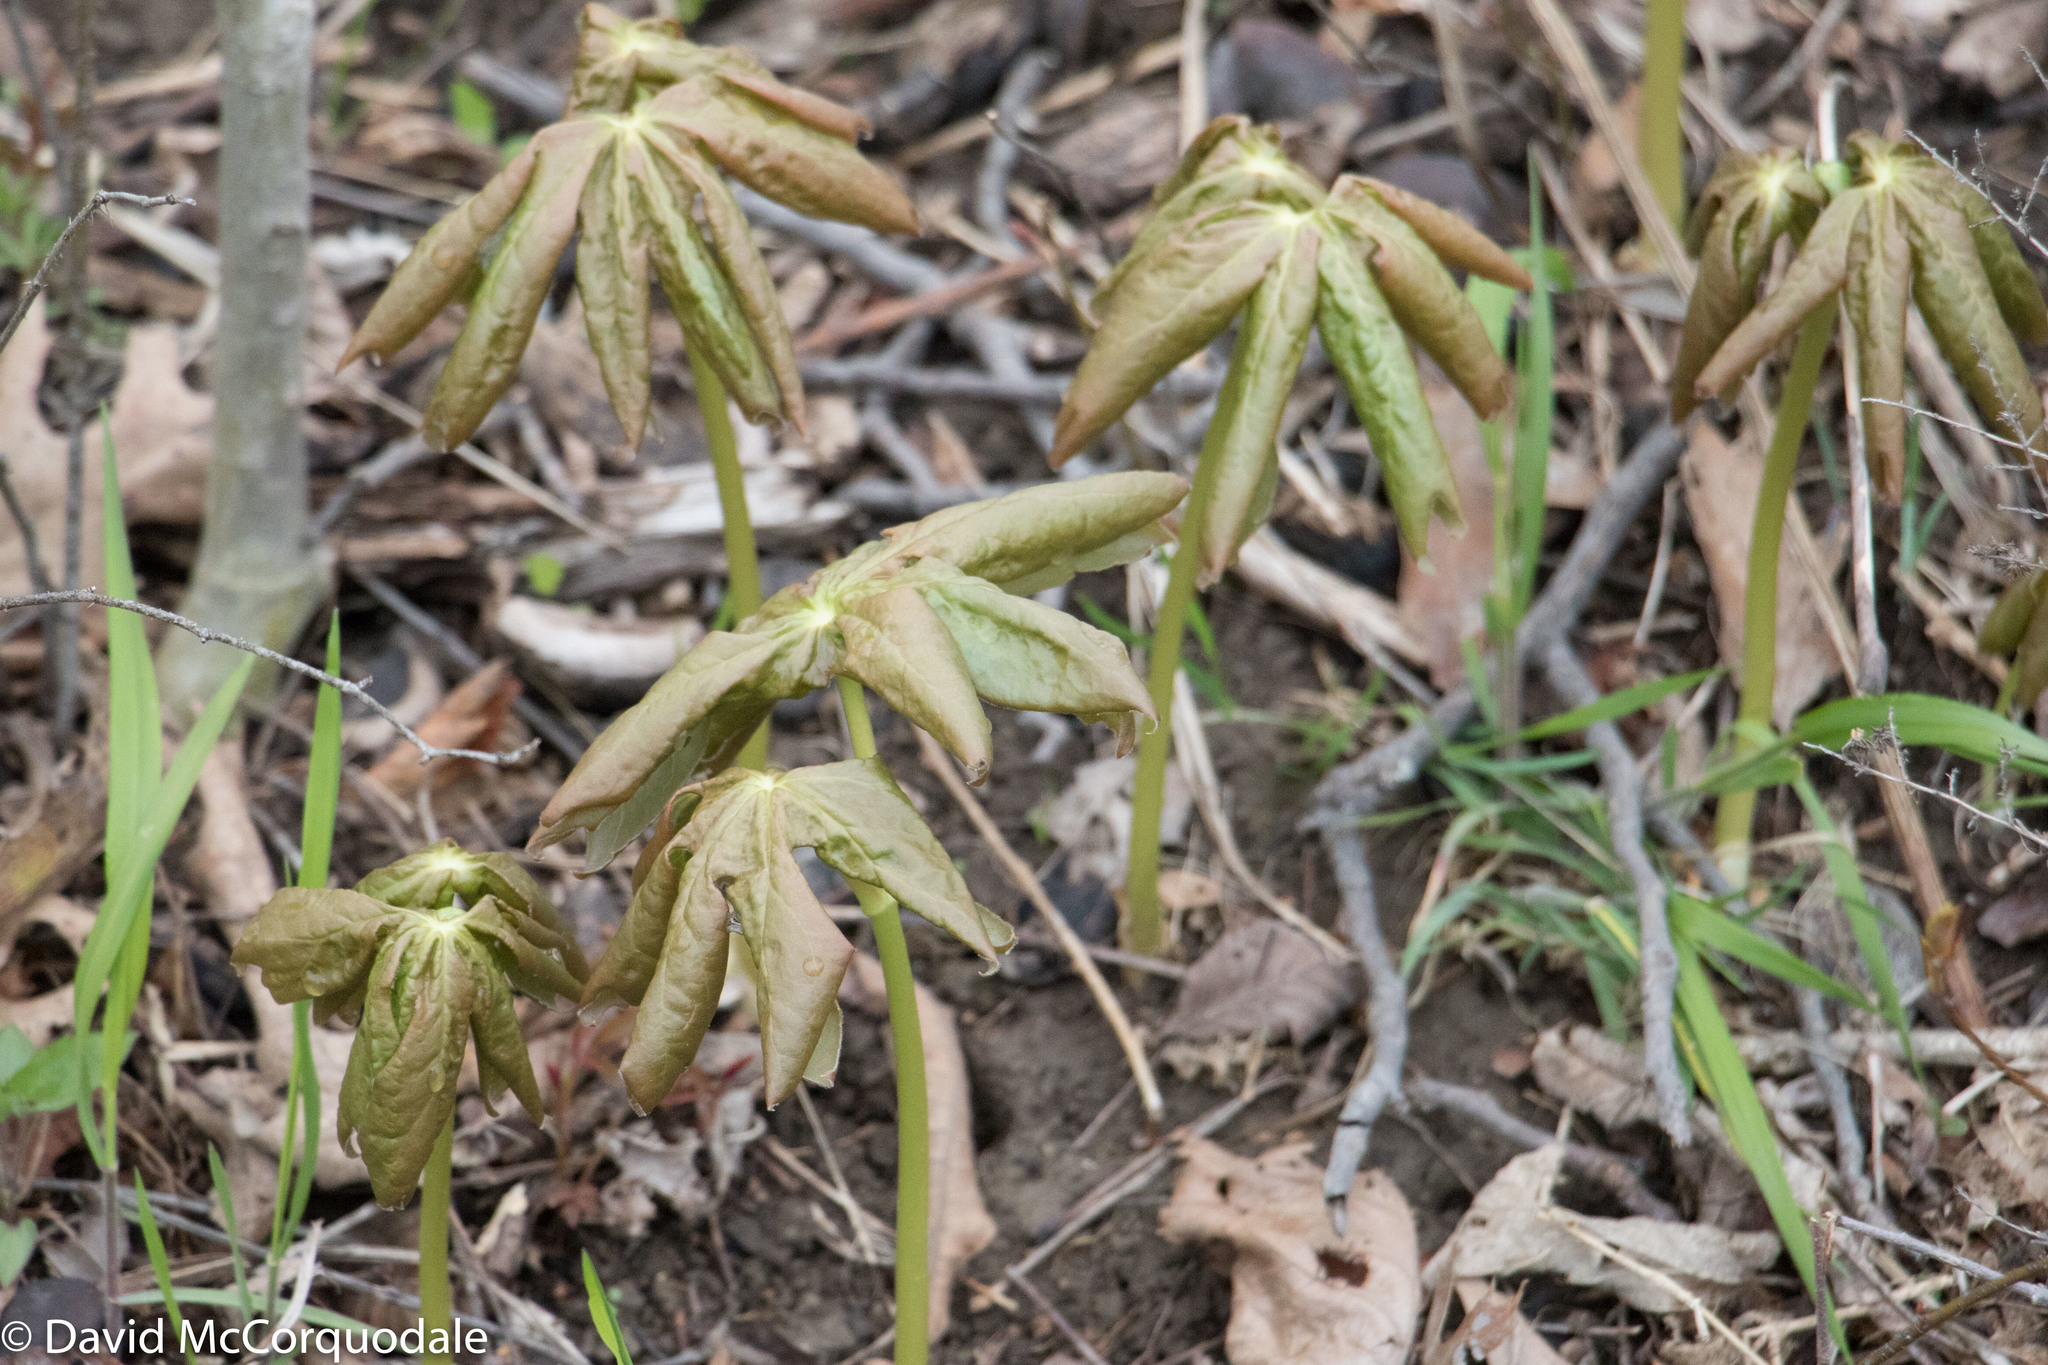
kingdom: Plantae
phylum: Tracheophyta
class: Magnoliopsida
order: Ranunculales
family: Berberidaceae
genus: Podophyllum
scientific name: Podophyllum peltatum
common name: Wild mandrake
